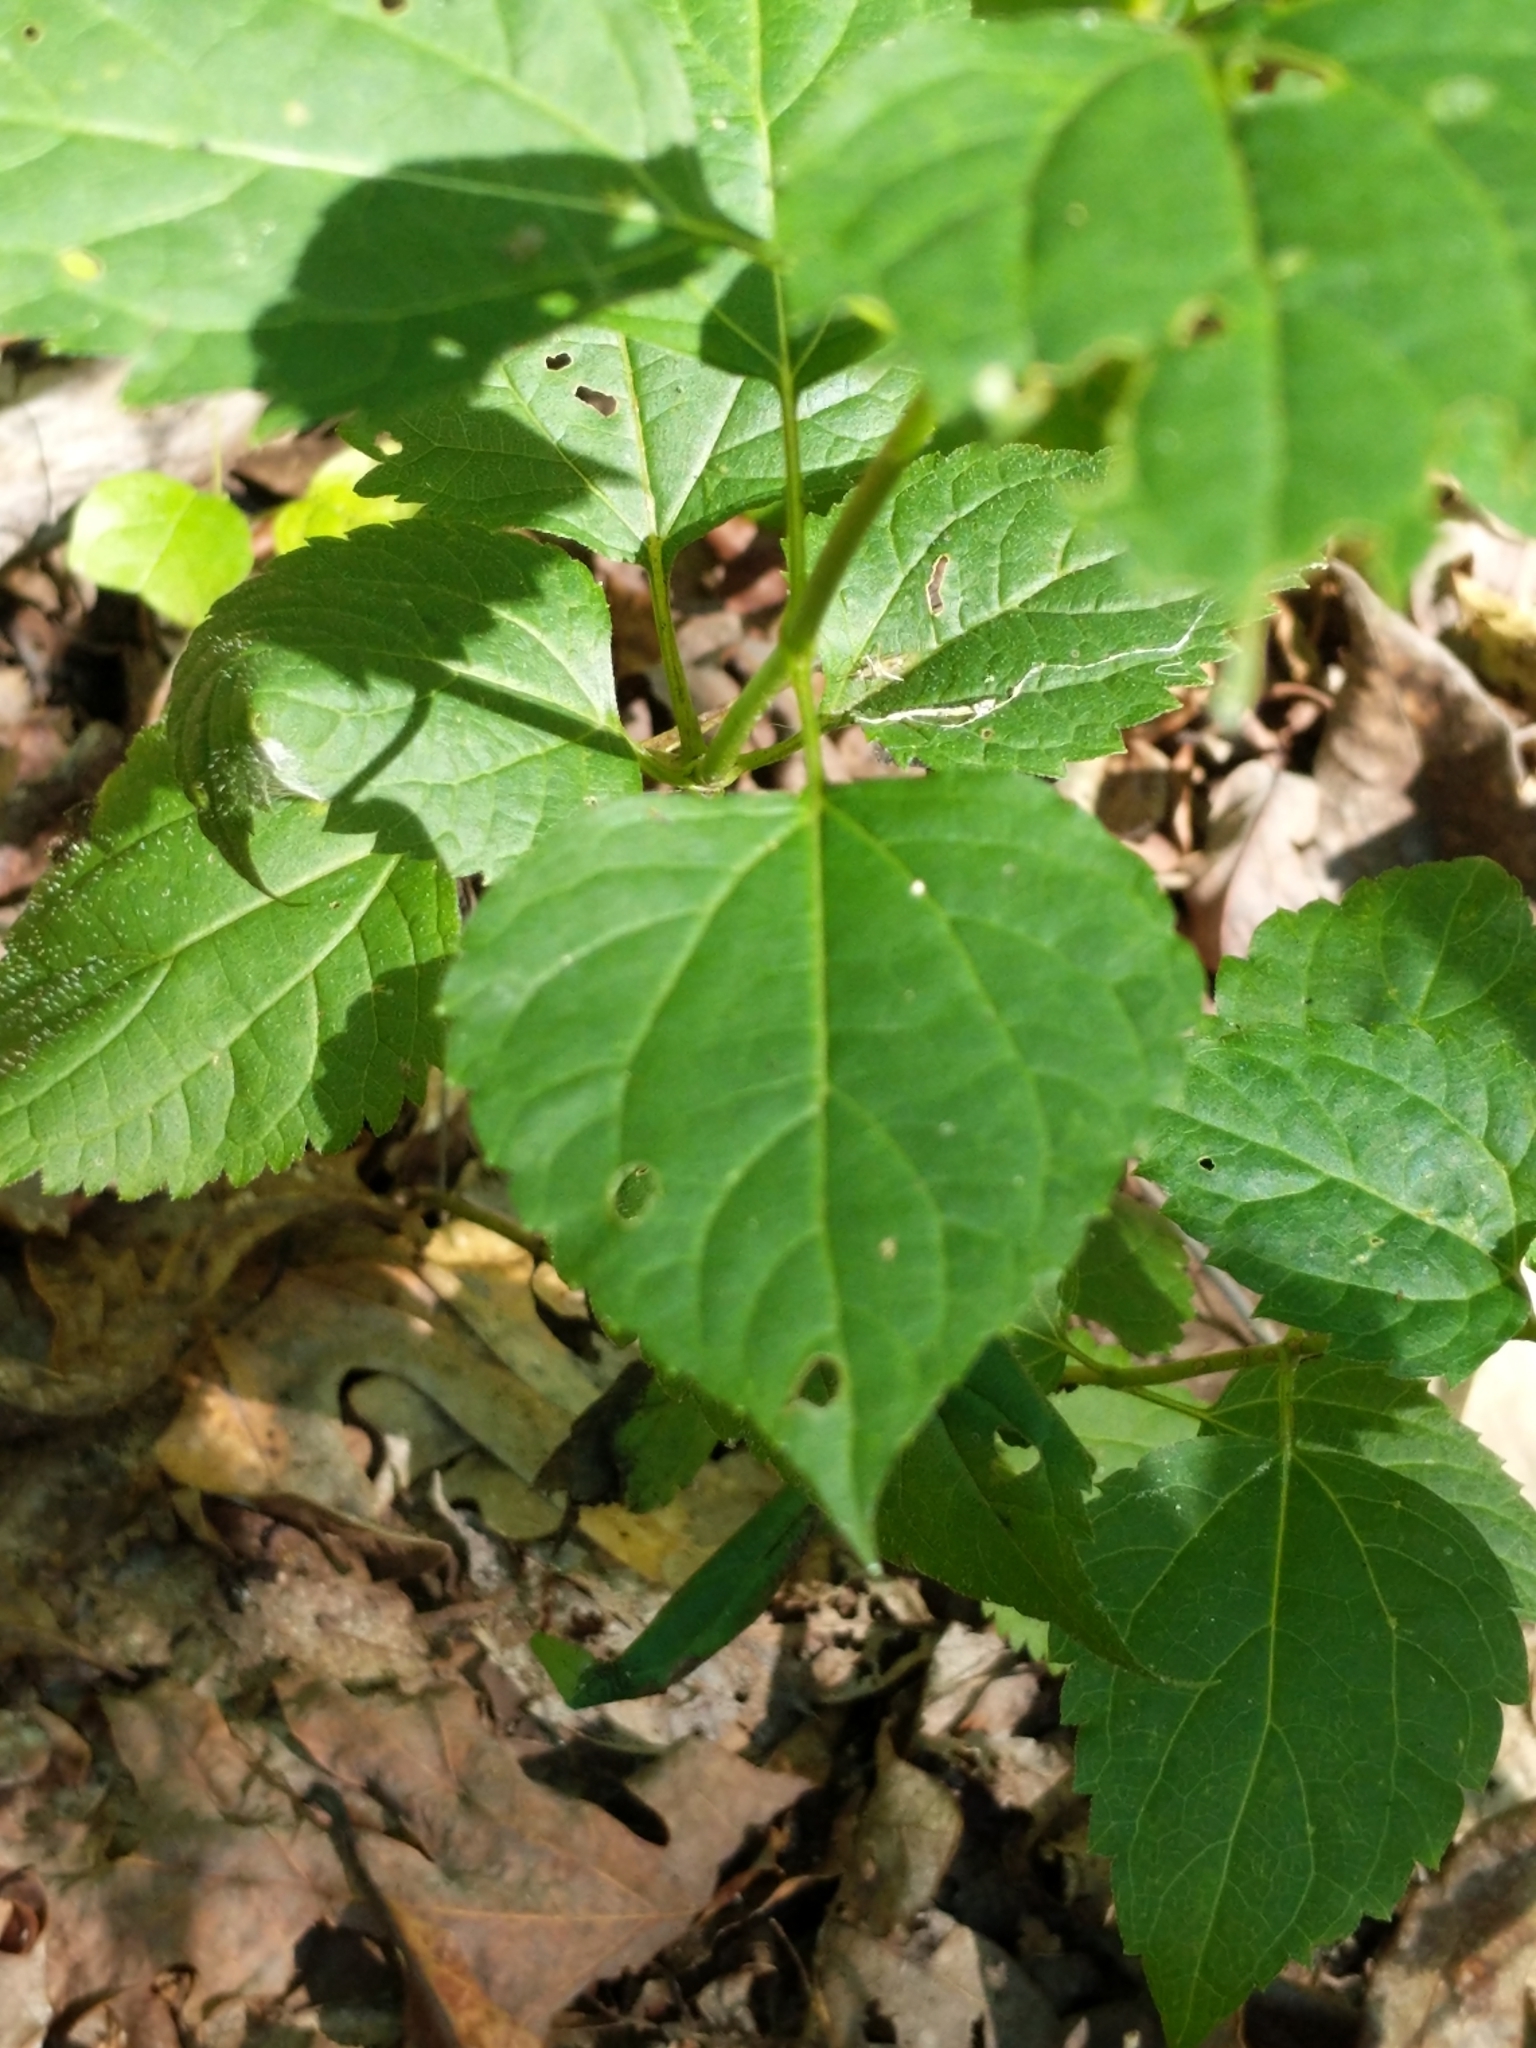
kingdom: Plantae
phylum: Tracheophyta
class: Magnoliopsida
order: Asterales
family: Asteraceae
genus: Ageratina
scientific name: Ageratina altissima
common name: White snakeroot
